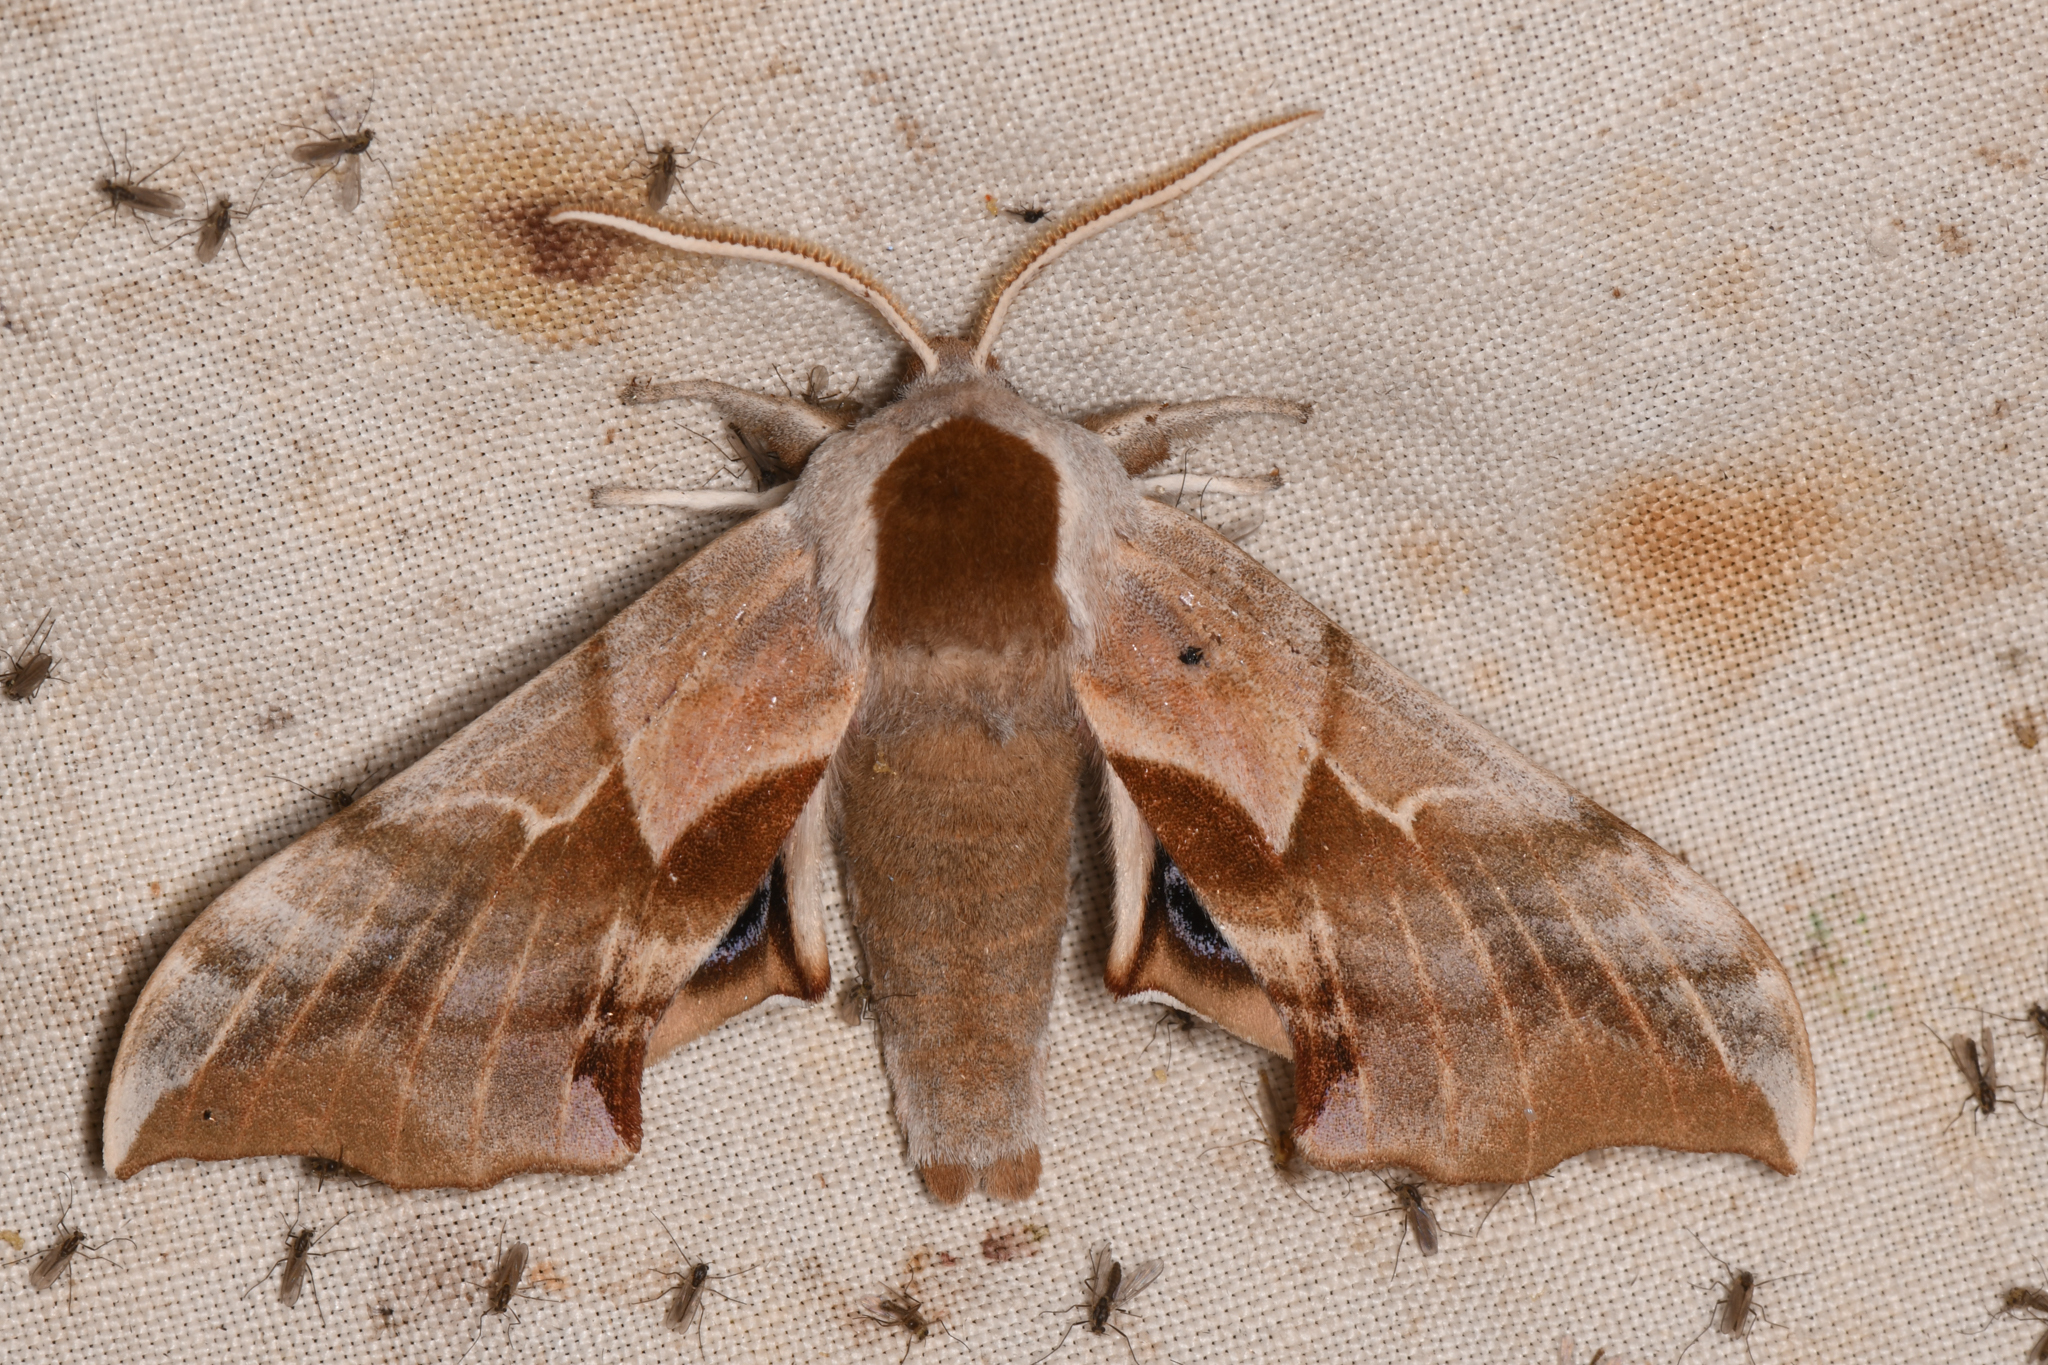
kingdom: Animalia
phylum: Arthropoda
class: Insecta
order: Lepidoptera
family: Sphingidae
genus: Smerinthus
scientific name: Smerinthus cerisyi
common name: Cerisy's sphinx moth
